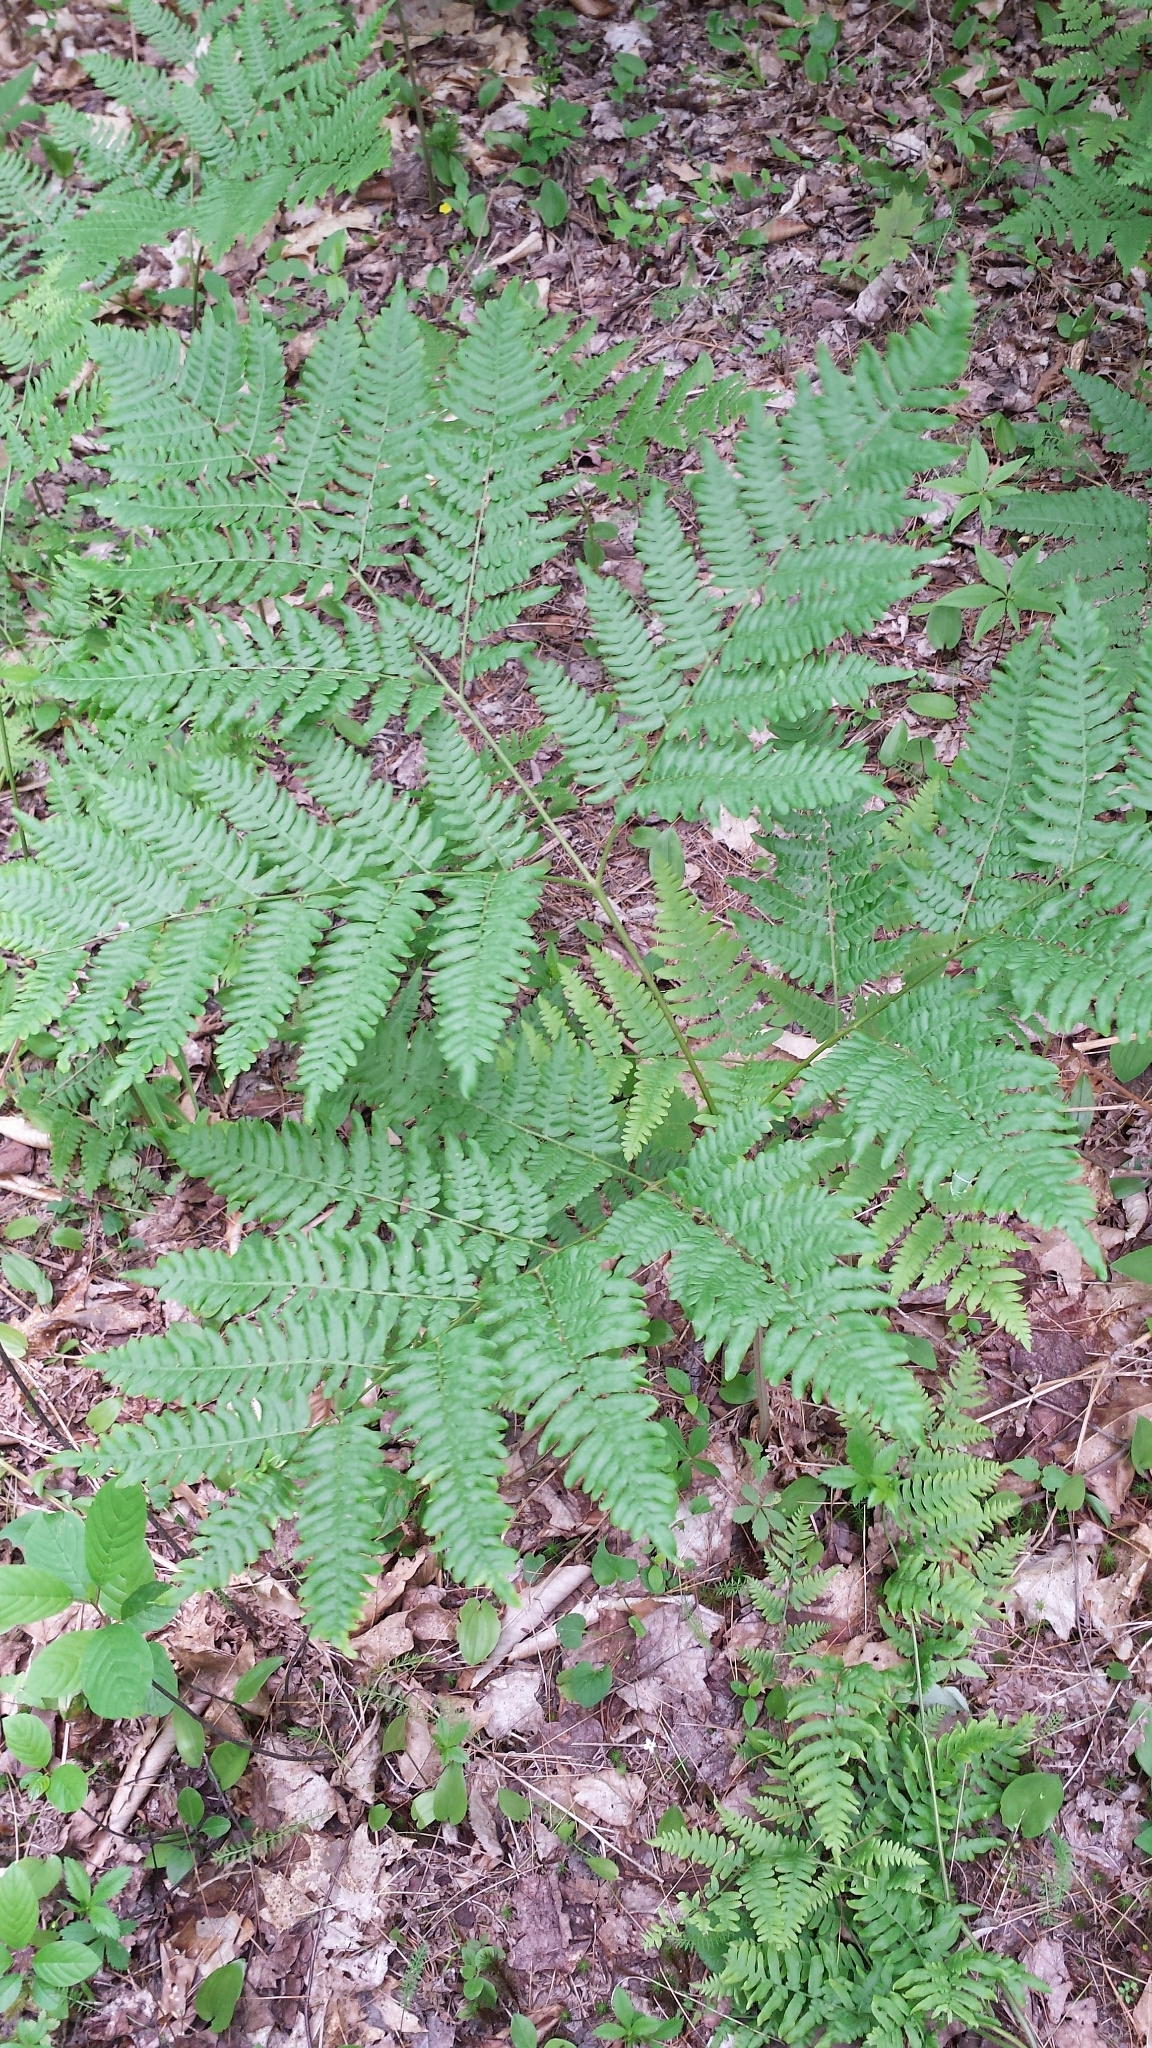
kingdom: Plantae
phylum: Tracheophyta
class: Polypodiopsida
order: Polypodiales
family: Dennstaedtiaceae
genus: Pteridium
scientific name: Pteridium aquilinum
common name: Bracken
